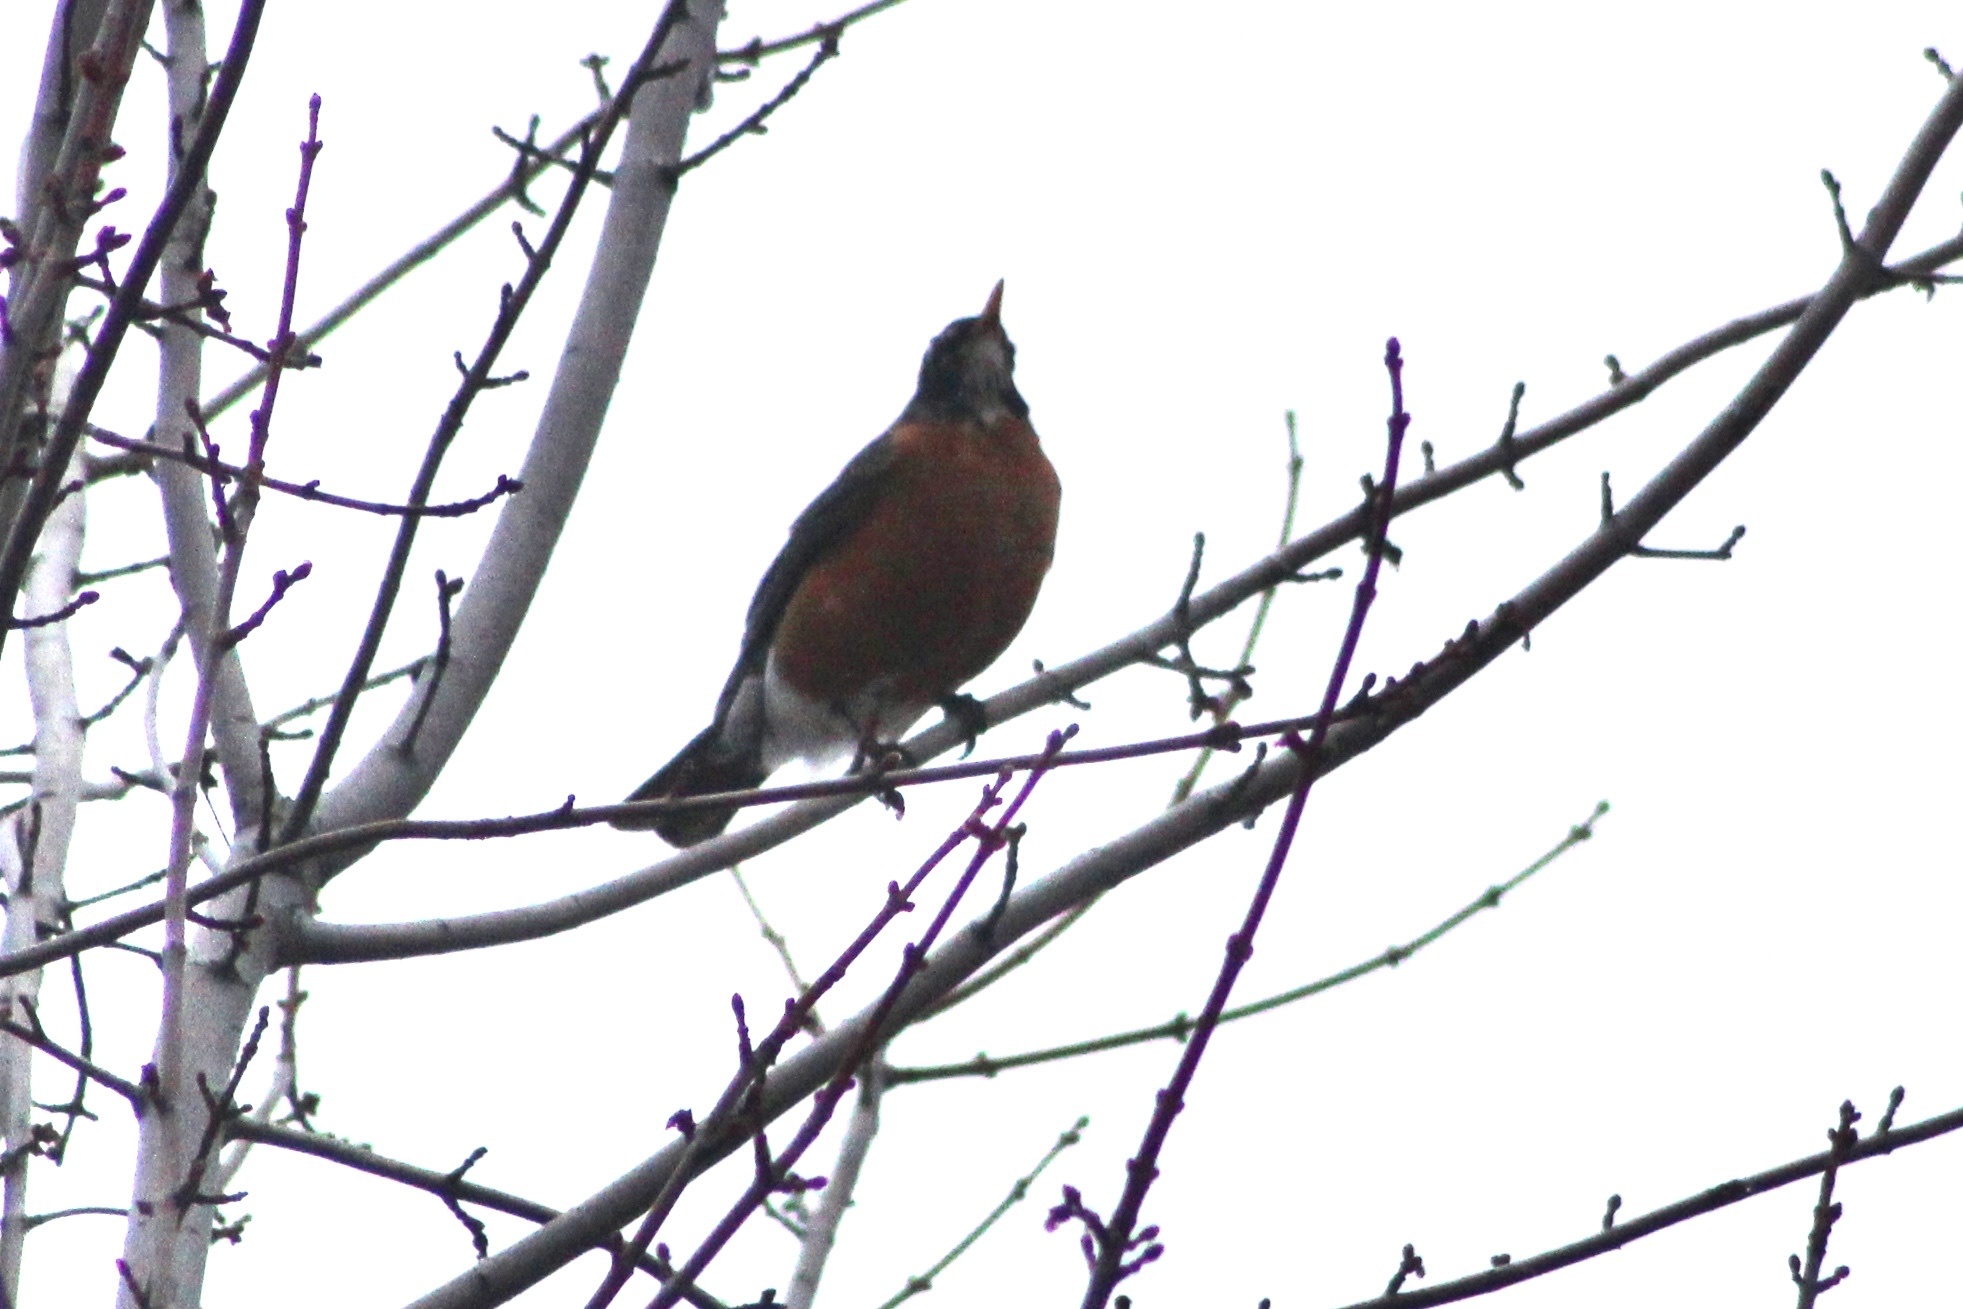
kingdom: Animalia
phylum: Chordata
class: Aves
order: Passeriformes
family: Turdidae
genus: Turdus
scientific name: Turdus migratorius
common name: American robin
